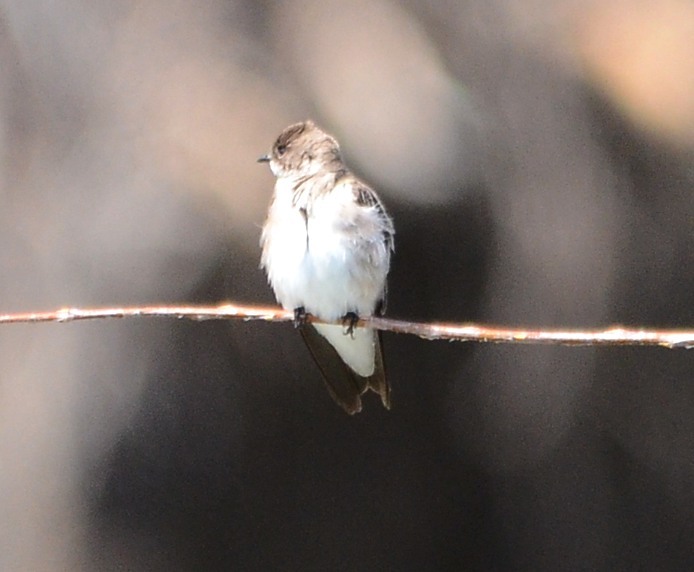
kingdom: Animalia
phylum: Chordata
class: Aves
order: Passeriformes
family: Hirundinidae
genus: Stelgidopteryx
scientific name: Stelgidopteryx serripennis
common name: Northern rough-winged swallow
